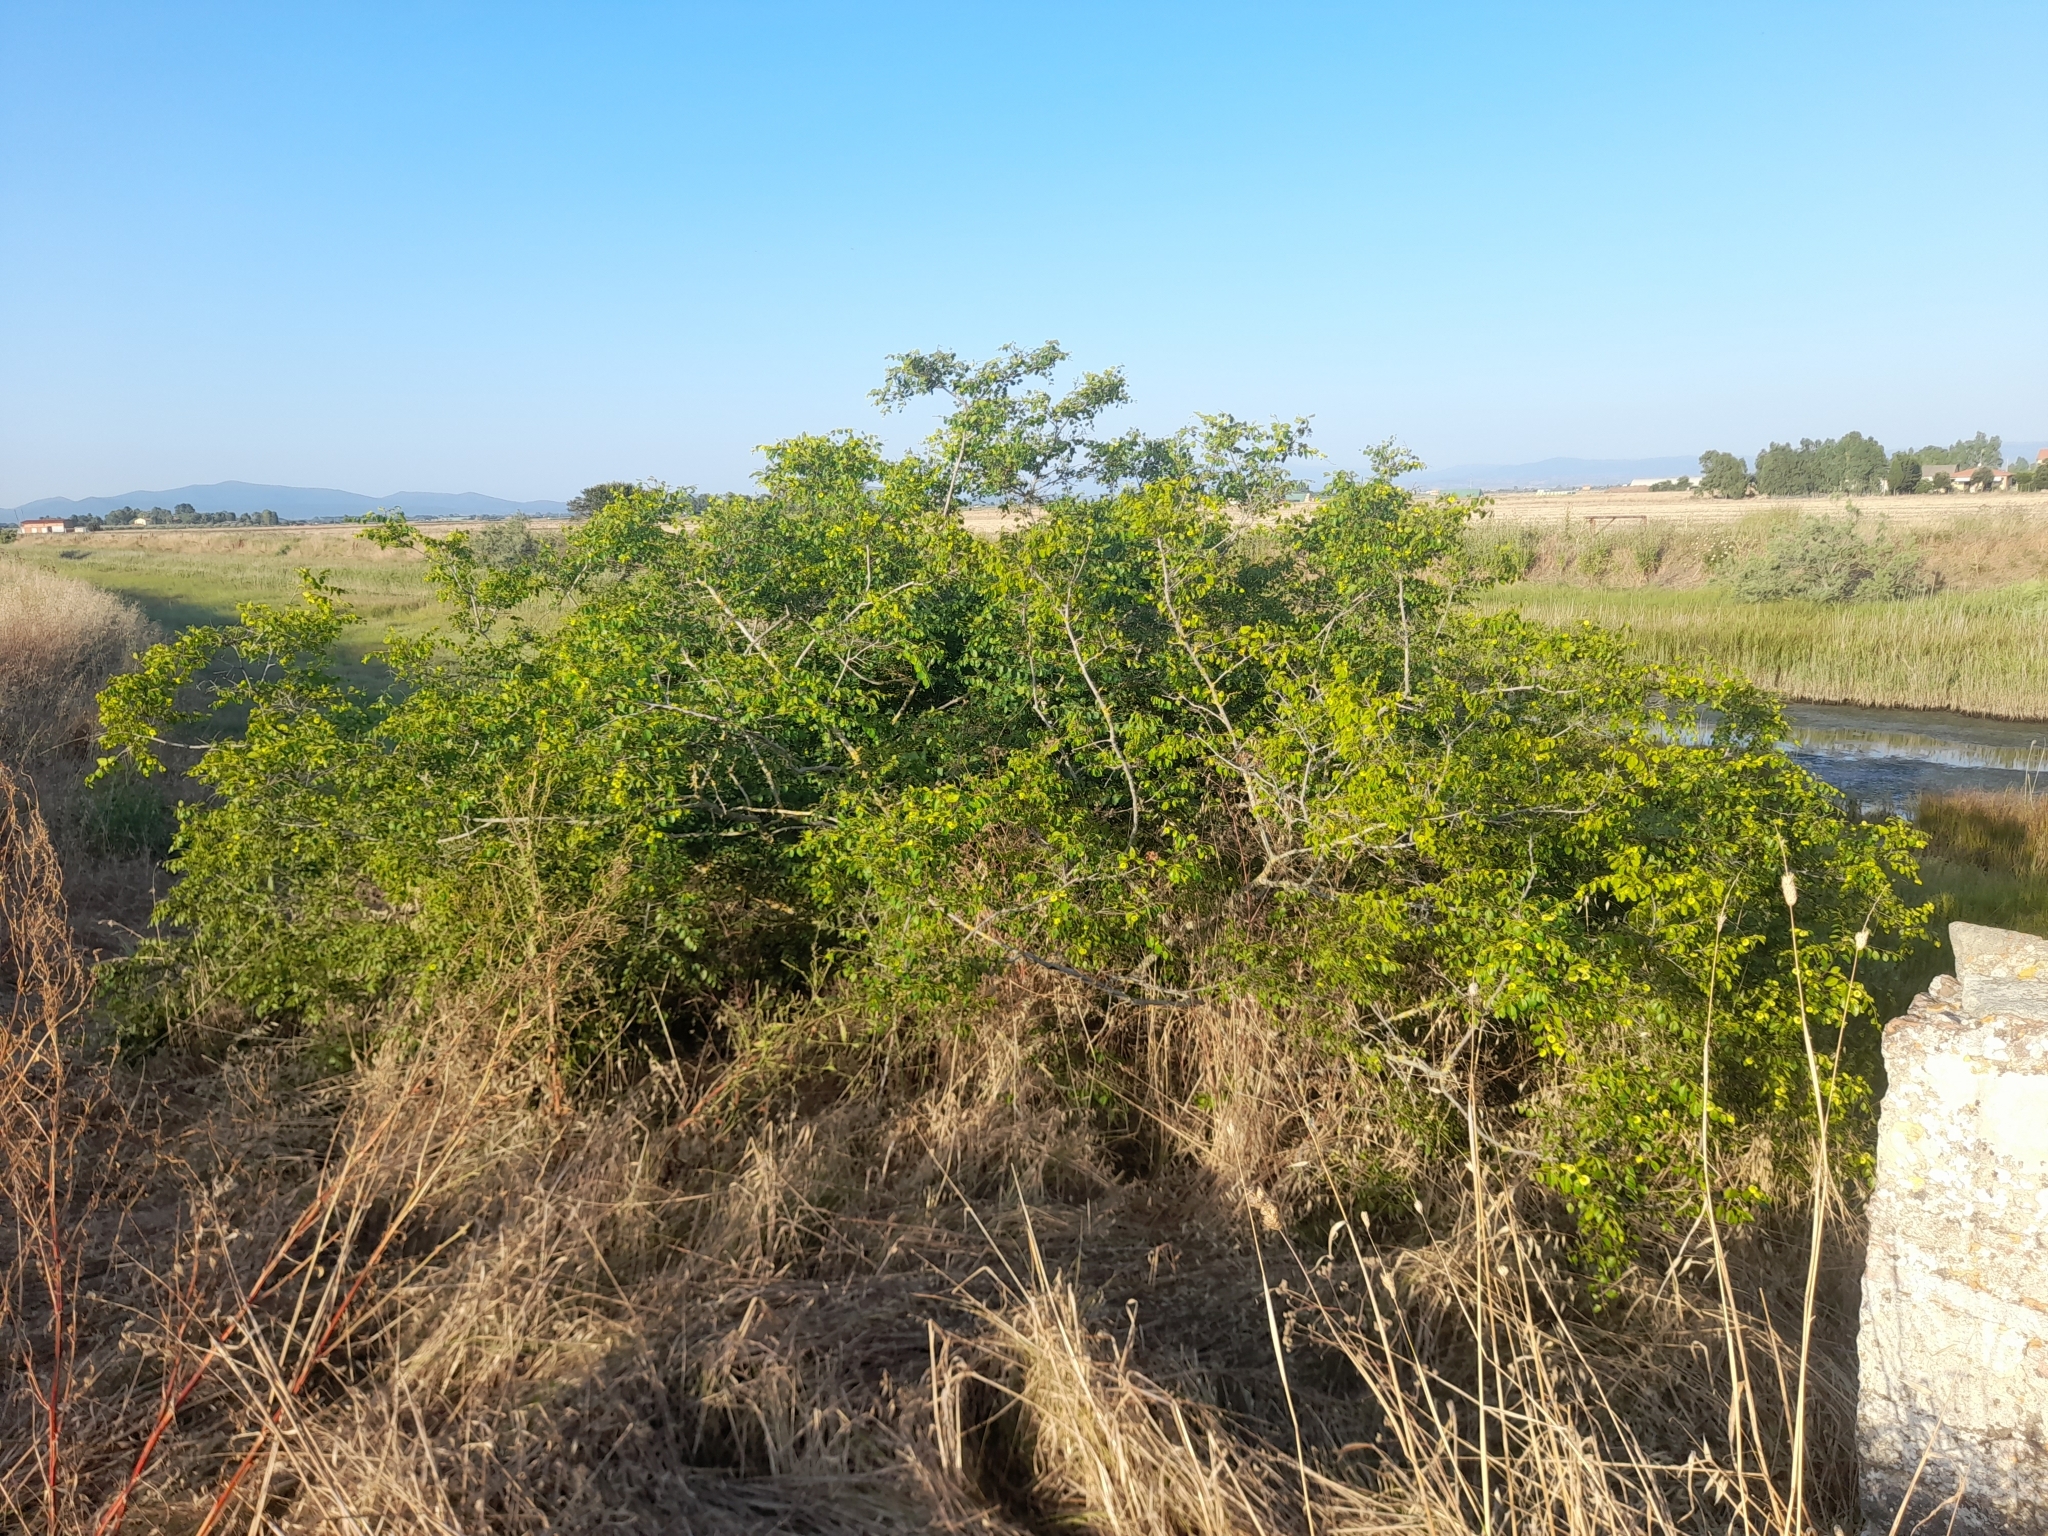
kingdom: Plantae
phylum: Tracheophyta
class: Magnoliopsida
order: Rosales
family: Rhamnaceae
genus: Paliurus
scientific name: Paliurus spina-christi
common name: Jeruselem thorn
